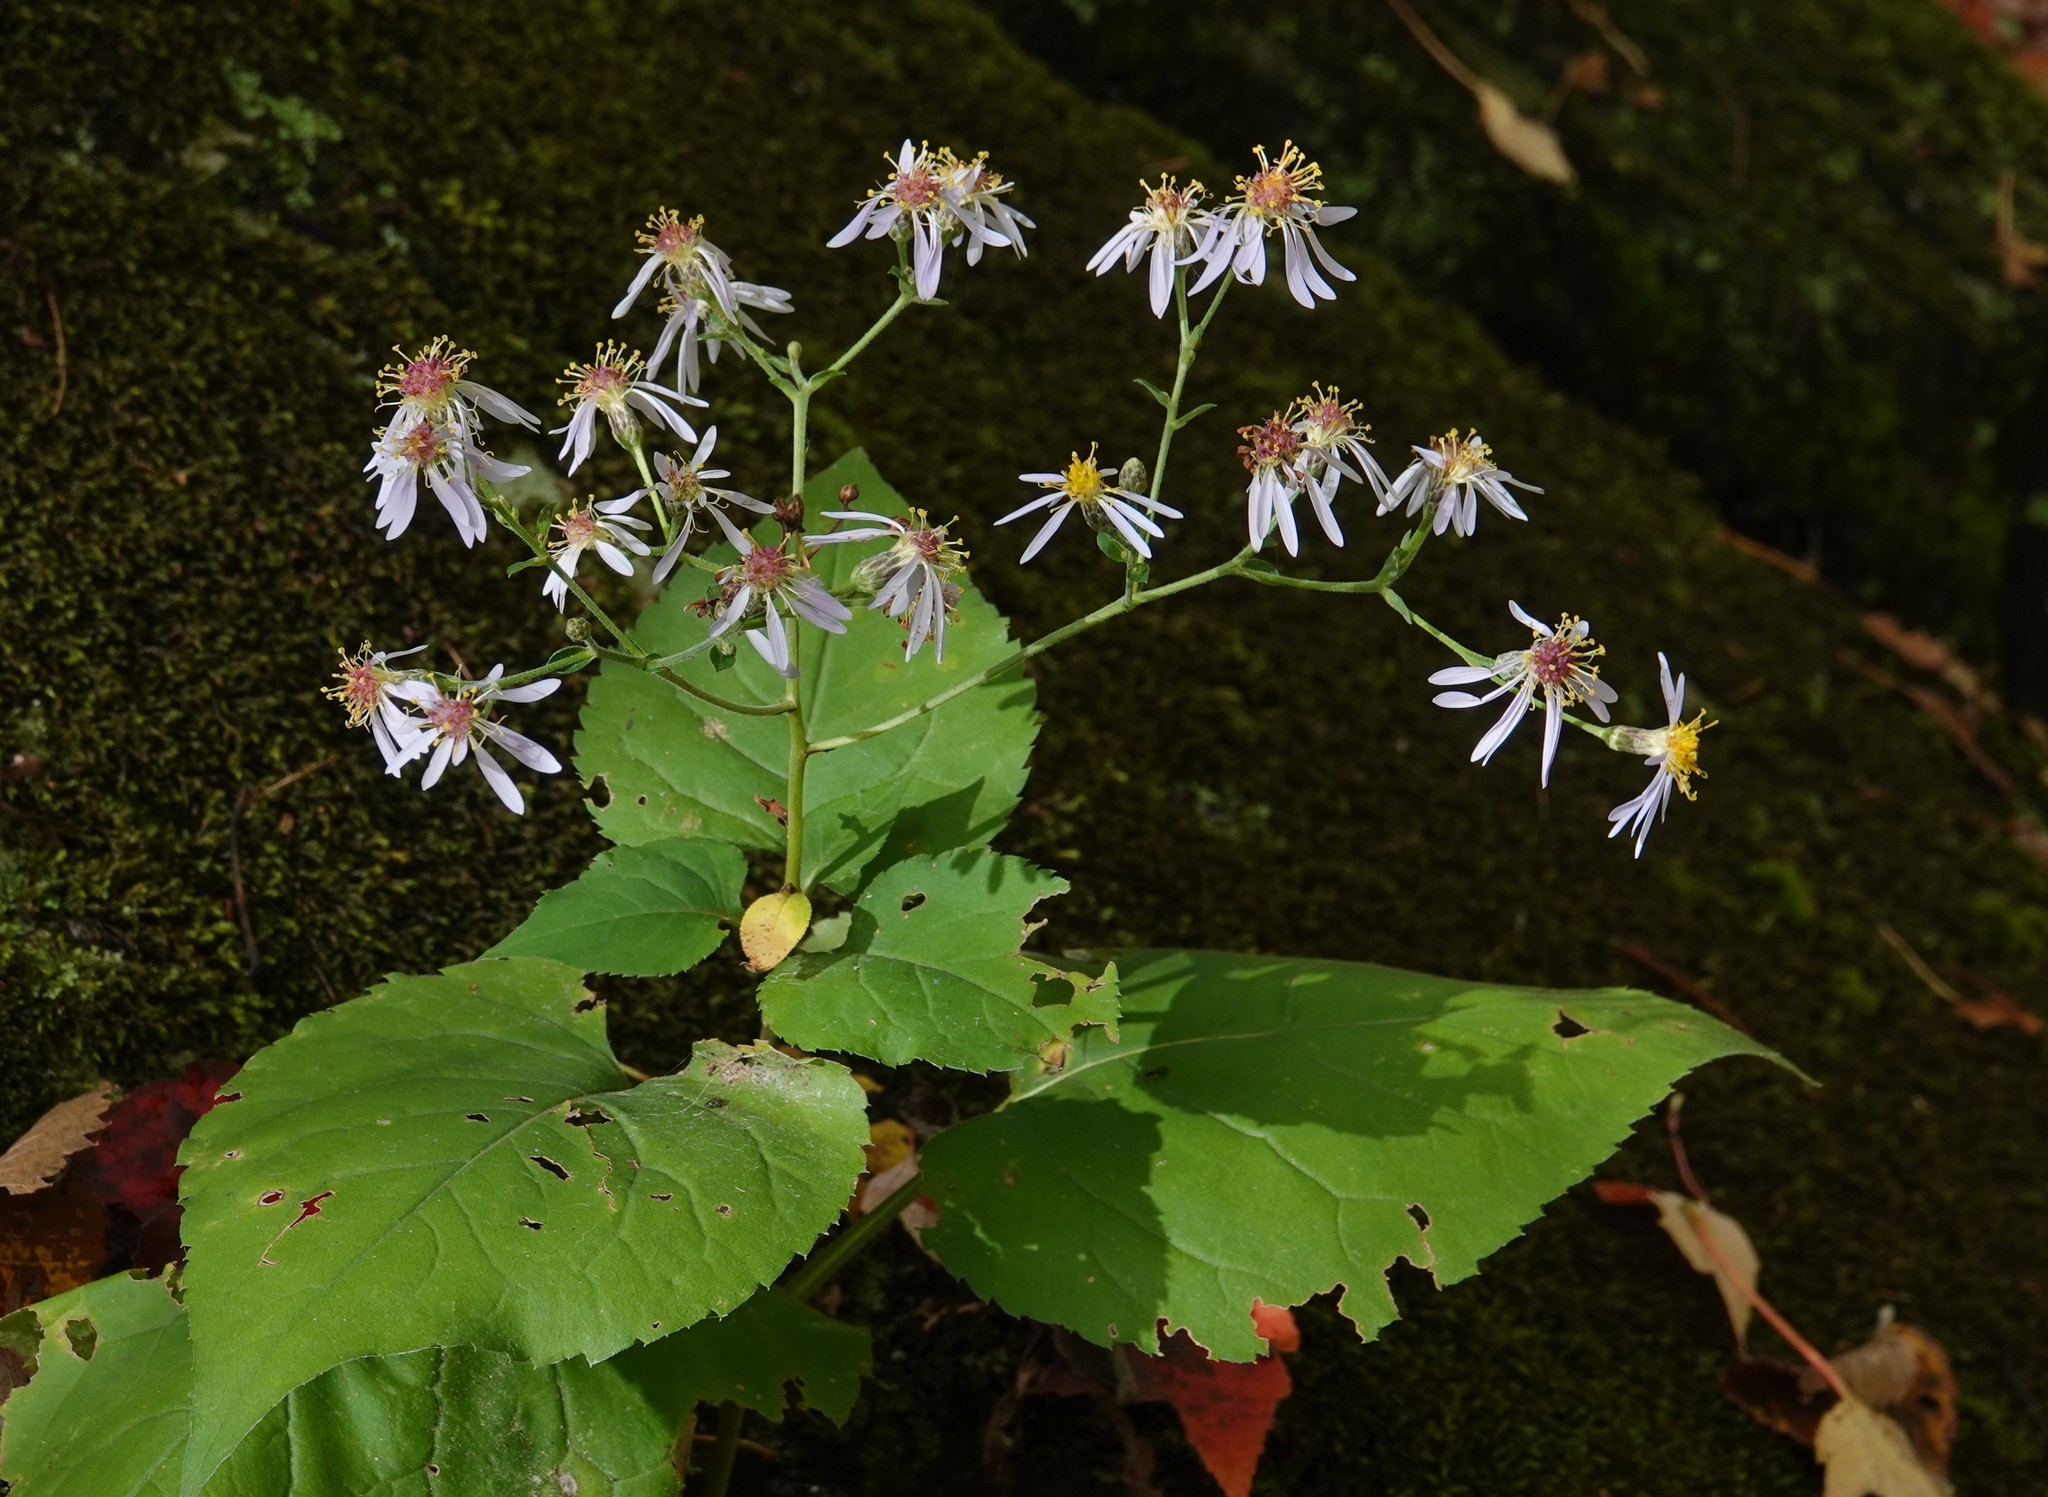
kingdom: Plantae
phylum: Tracheophyta
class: Magnoliopsida
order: Asterales
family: Asteraceae
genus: Eurybia
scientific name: Eurybia macrophylla
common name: Big-leaved aster
